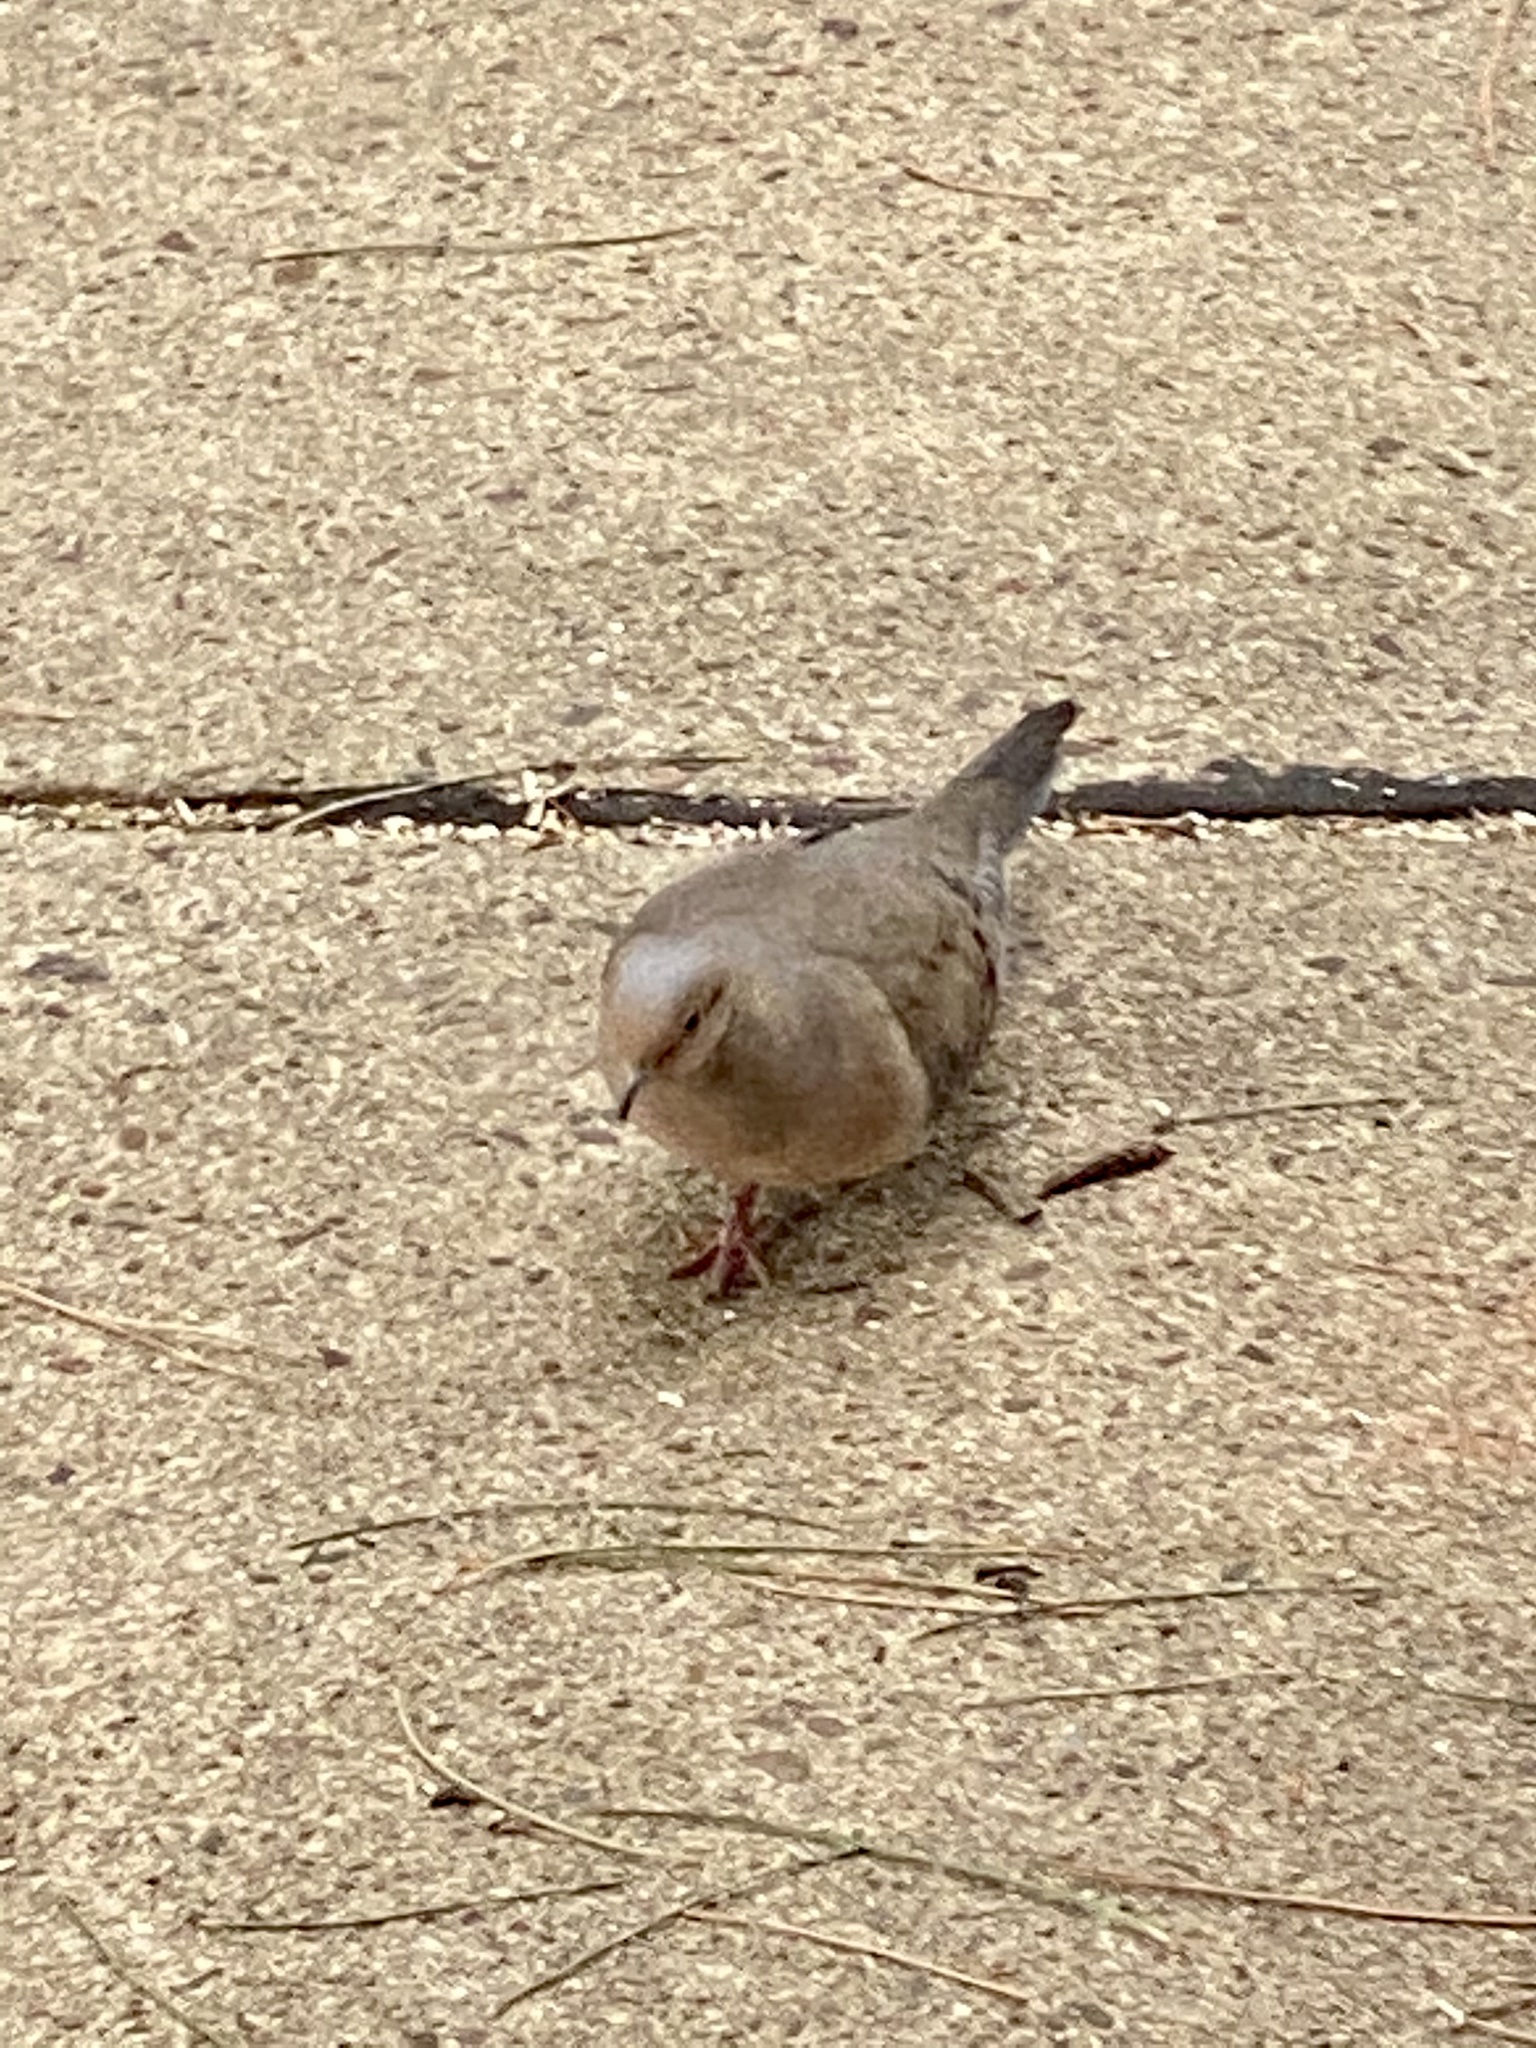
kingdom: Animalia
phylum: Chordata
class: Aves
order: Columbiformes
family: Columbidae
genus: Zenaida
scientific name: Zenaida macroura
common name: Mourning dove
